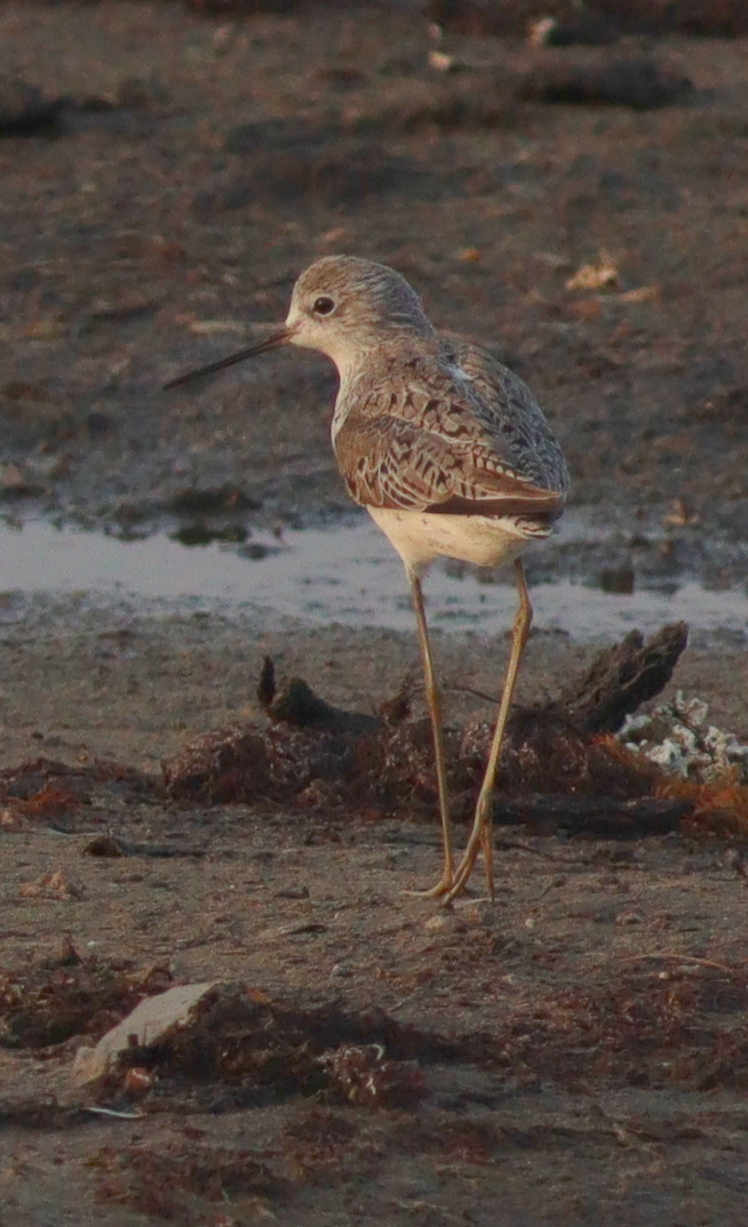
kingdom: Animalia
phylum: Chordata
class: Aves
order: Charadriiformes
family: Scolopacidae
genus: Tringa
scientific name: Tringa stagnatilis
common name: Marsh sandpiper
